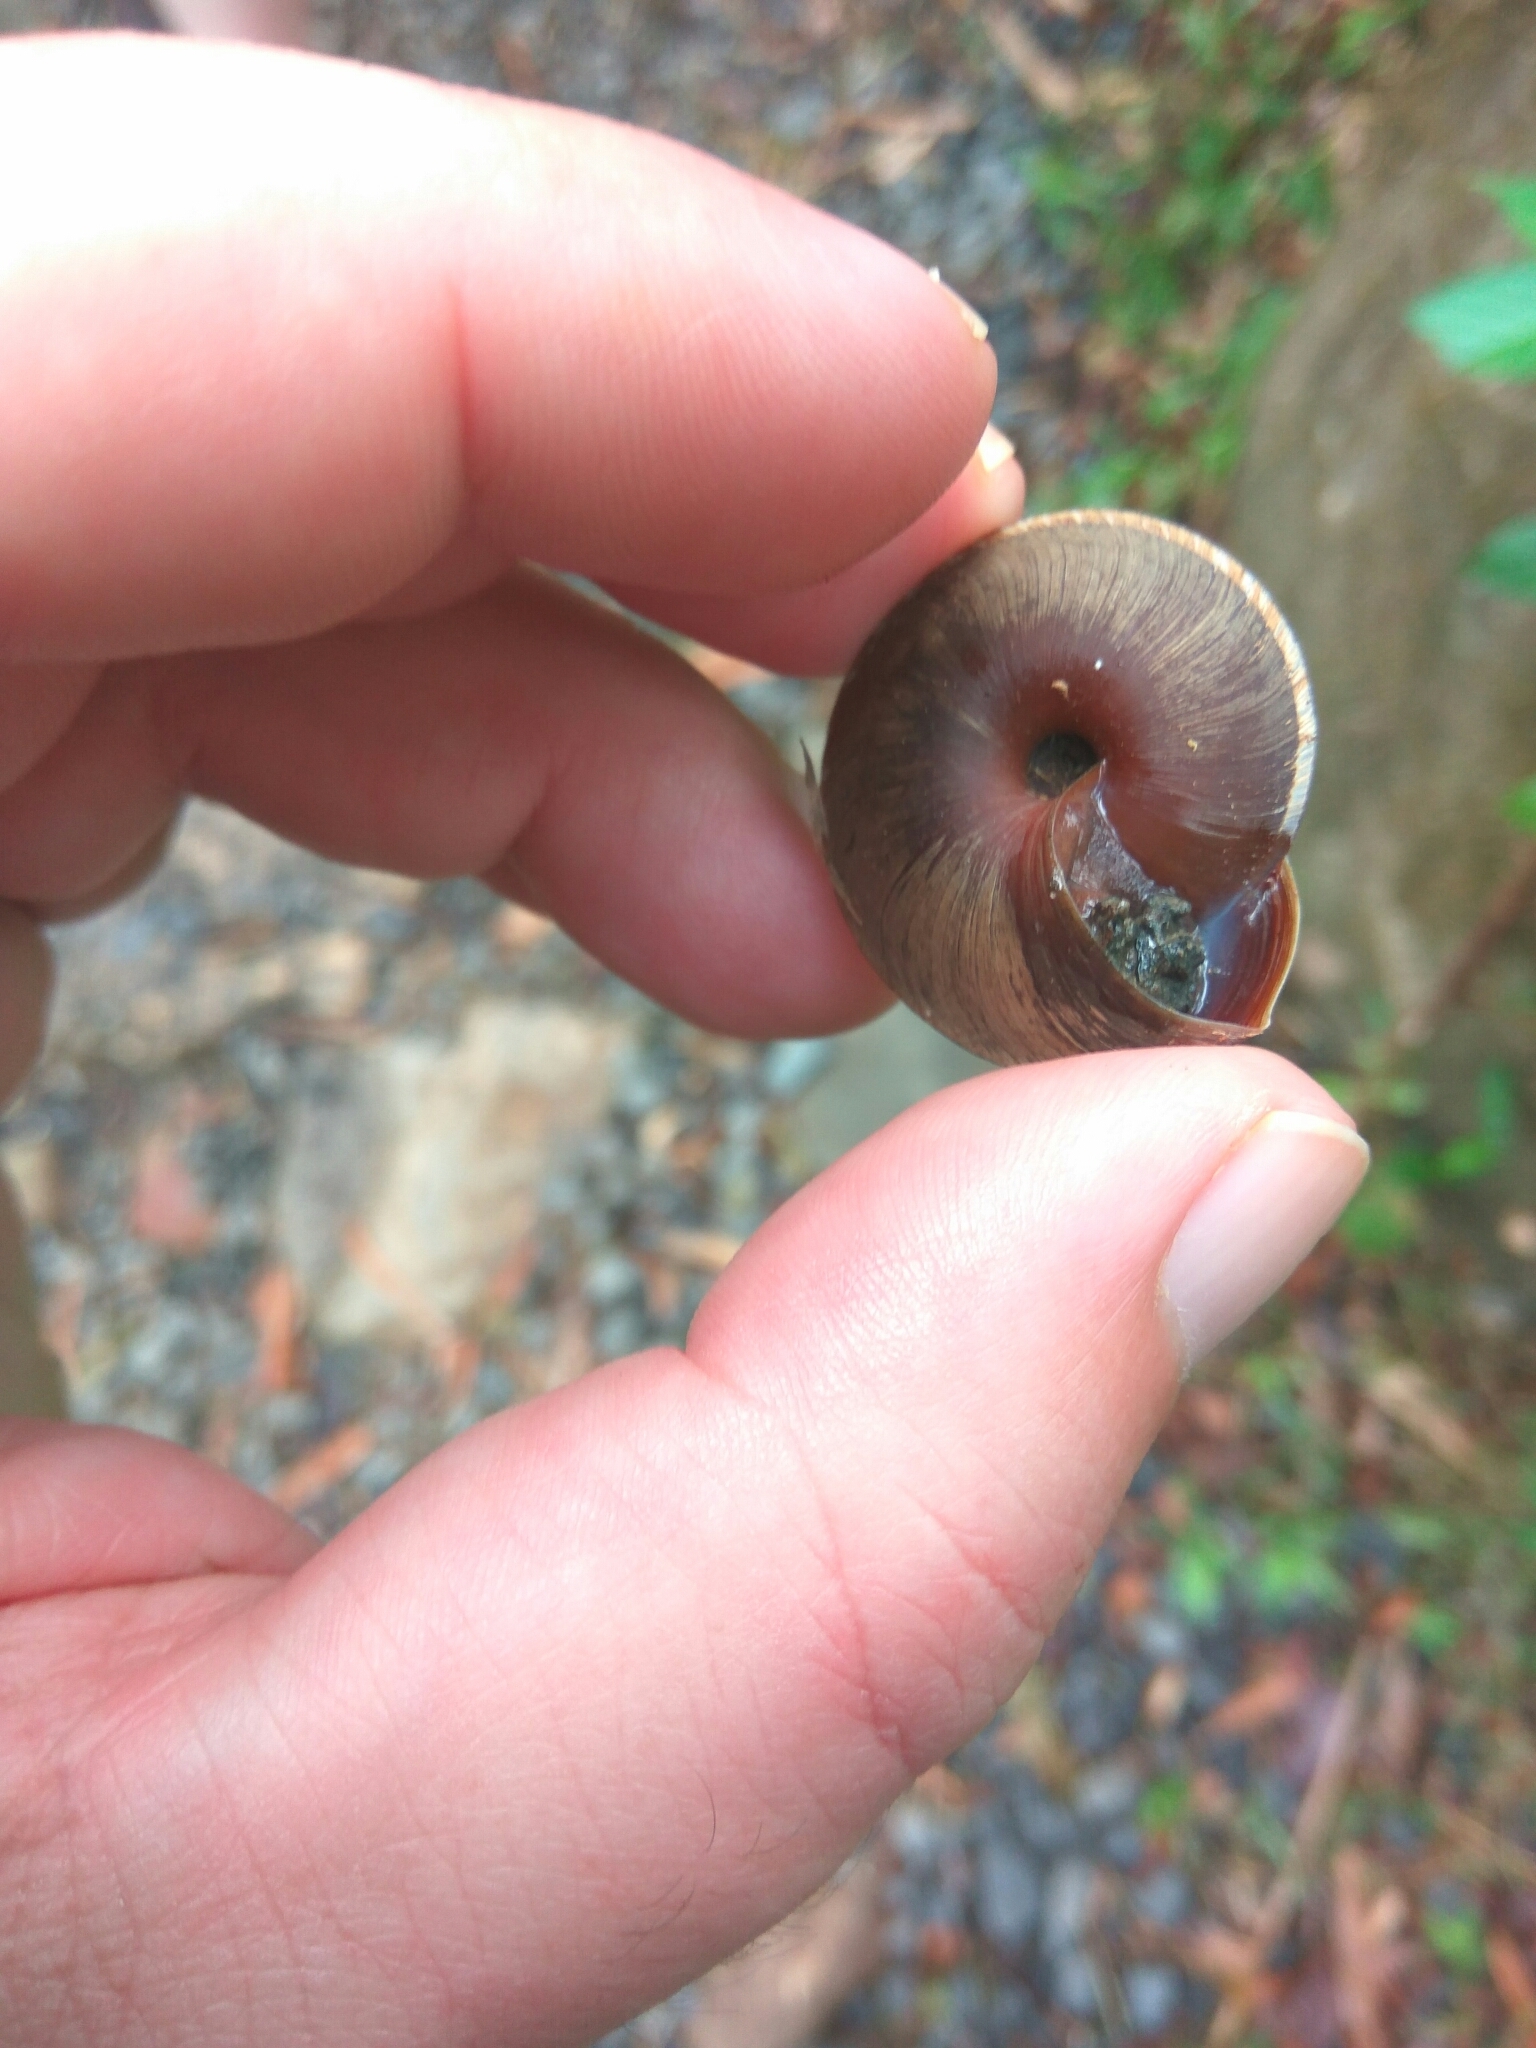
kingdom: Animalia
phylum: Mollusca
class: Gastropoda
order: Stylommatophora
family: Solaropsidae
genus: Caracolus
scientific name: Caracolus carocolla
